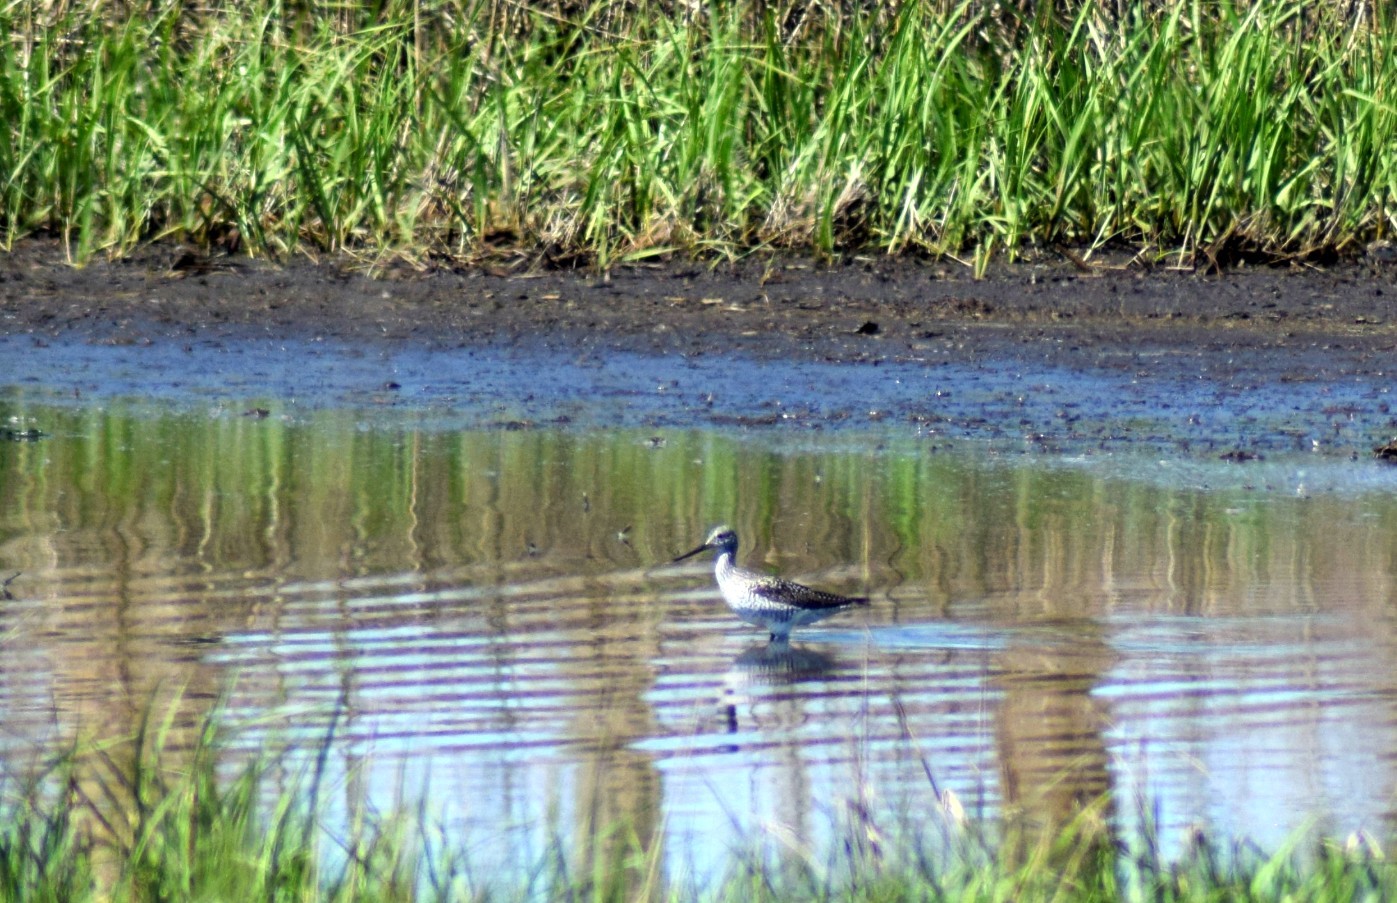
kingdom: Animalia
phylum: Chordata
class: Aves
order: Charadriiformes
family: Scolopacidae
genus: Tringa
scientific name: Tringa melanoleuca
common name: Greater yellowlegs
